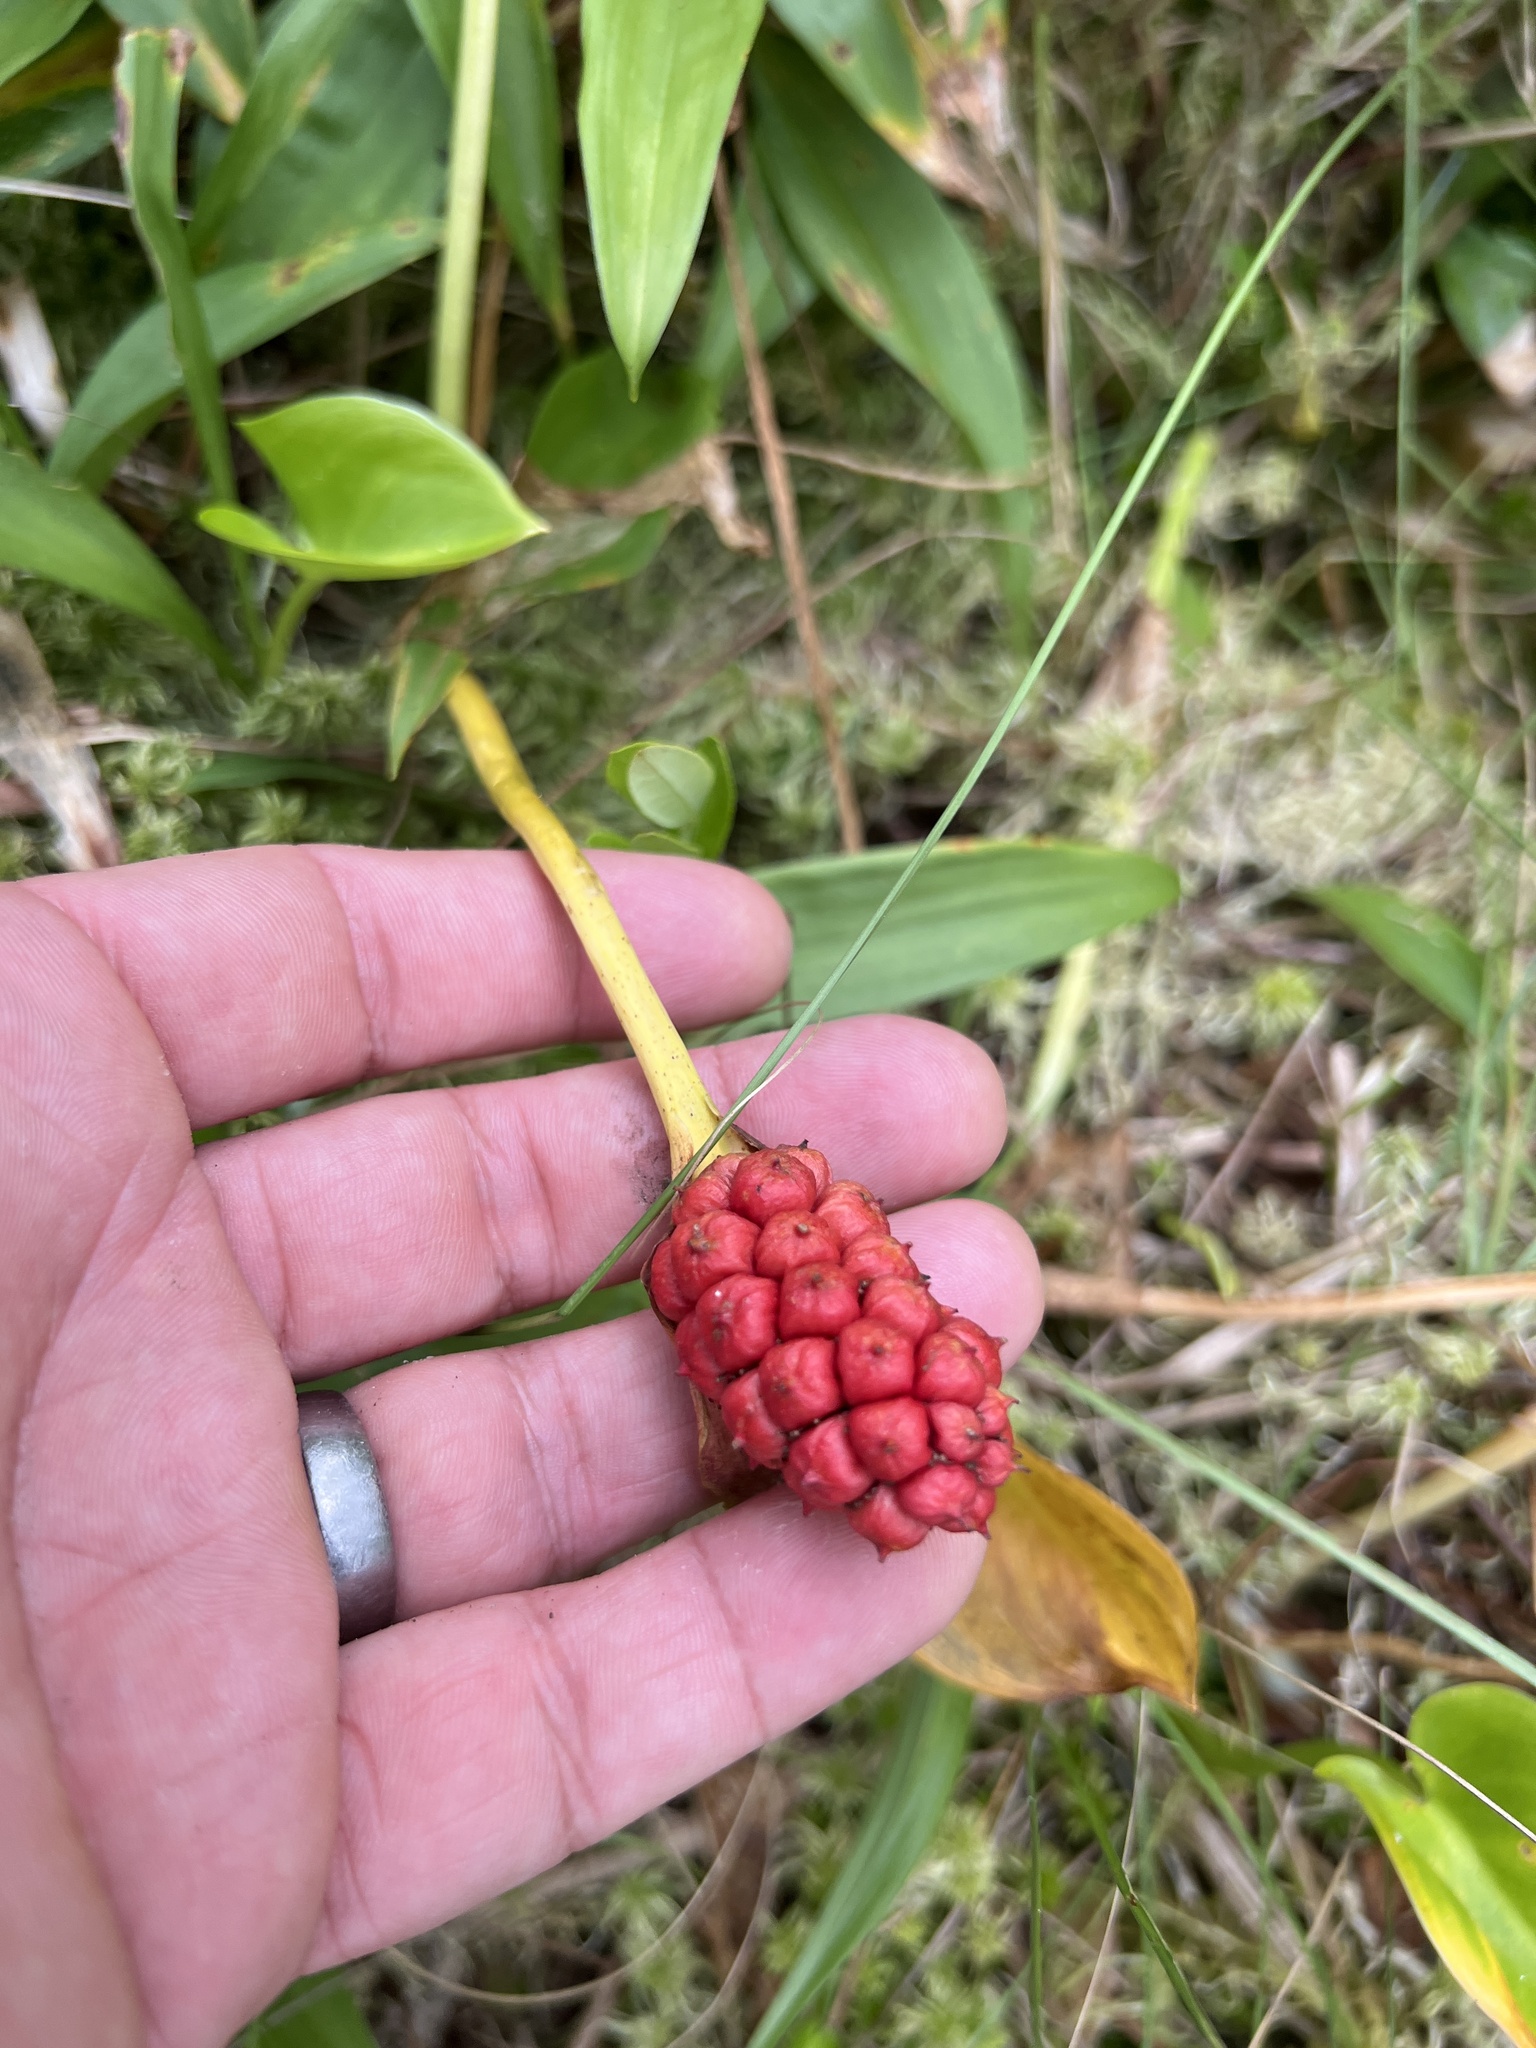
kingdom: Plantae
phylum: Tracheophyta
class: Liliopsida
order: Alismatales
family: Araceae
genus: Calla
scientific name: Calla palustris
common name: Bog arum
